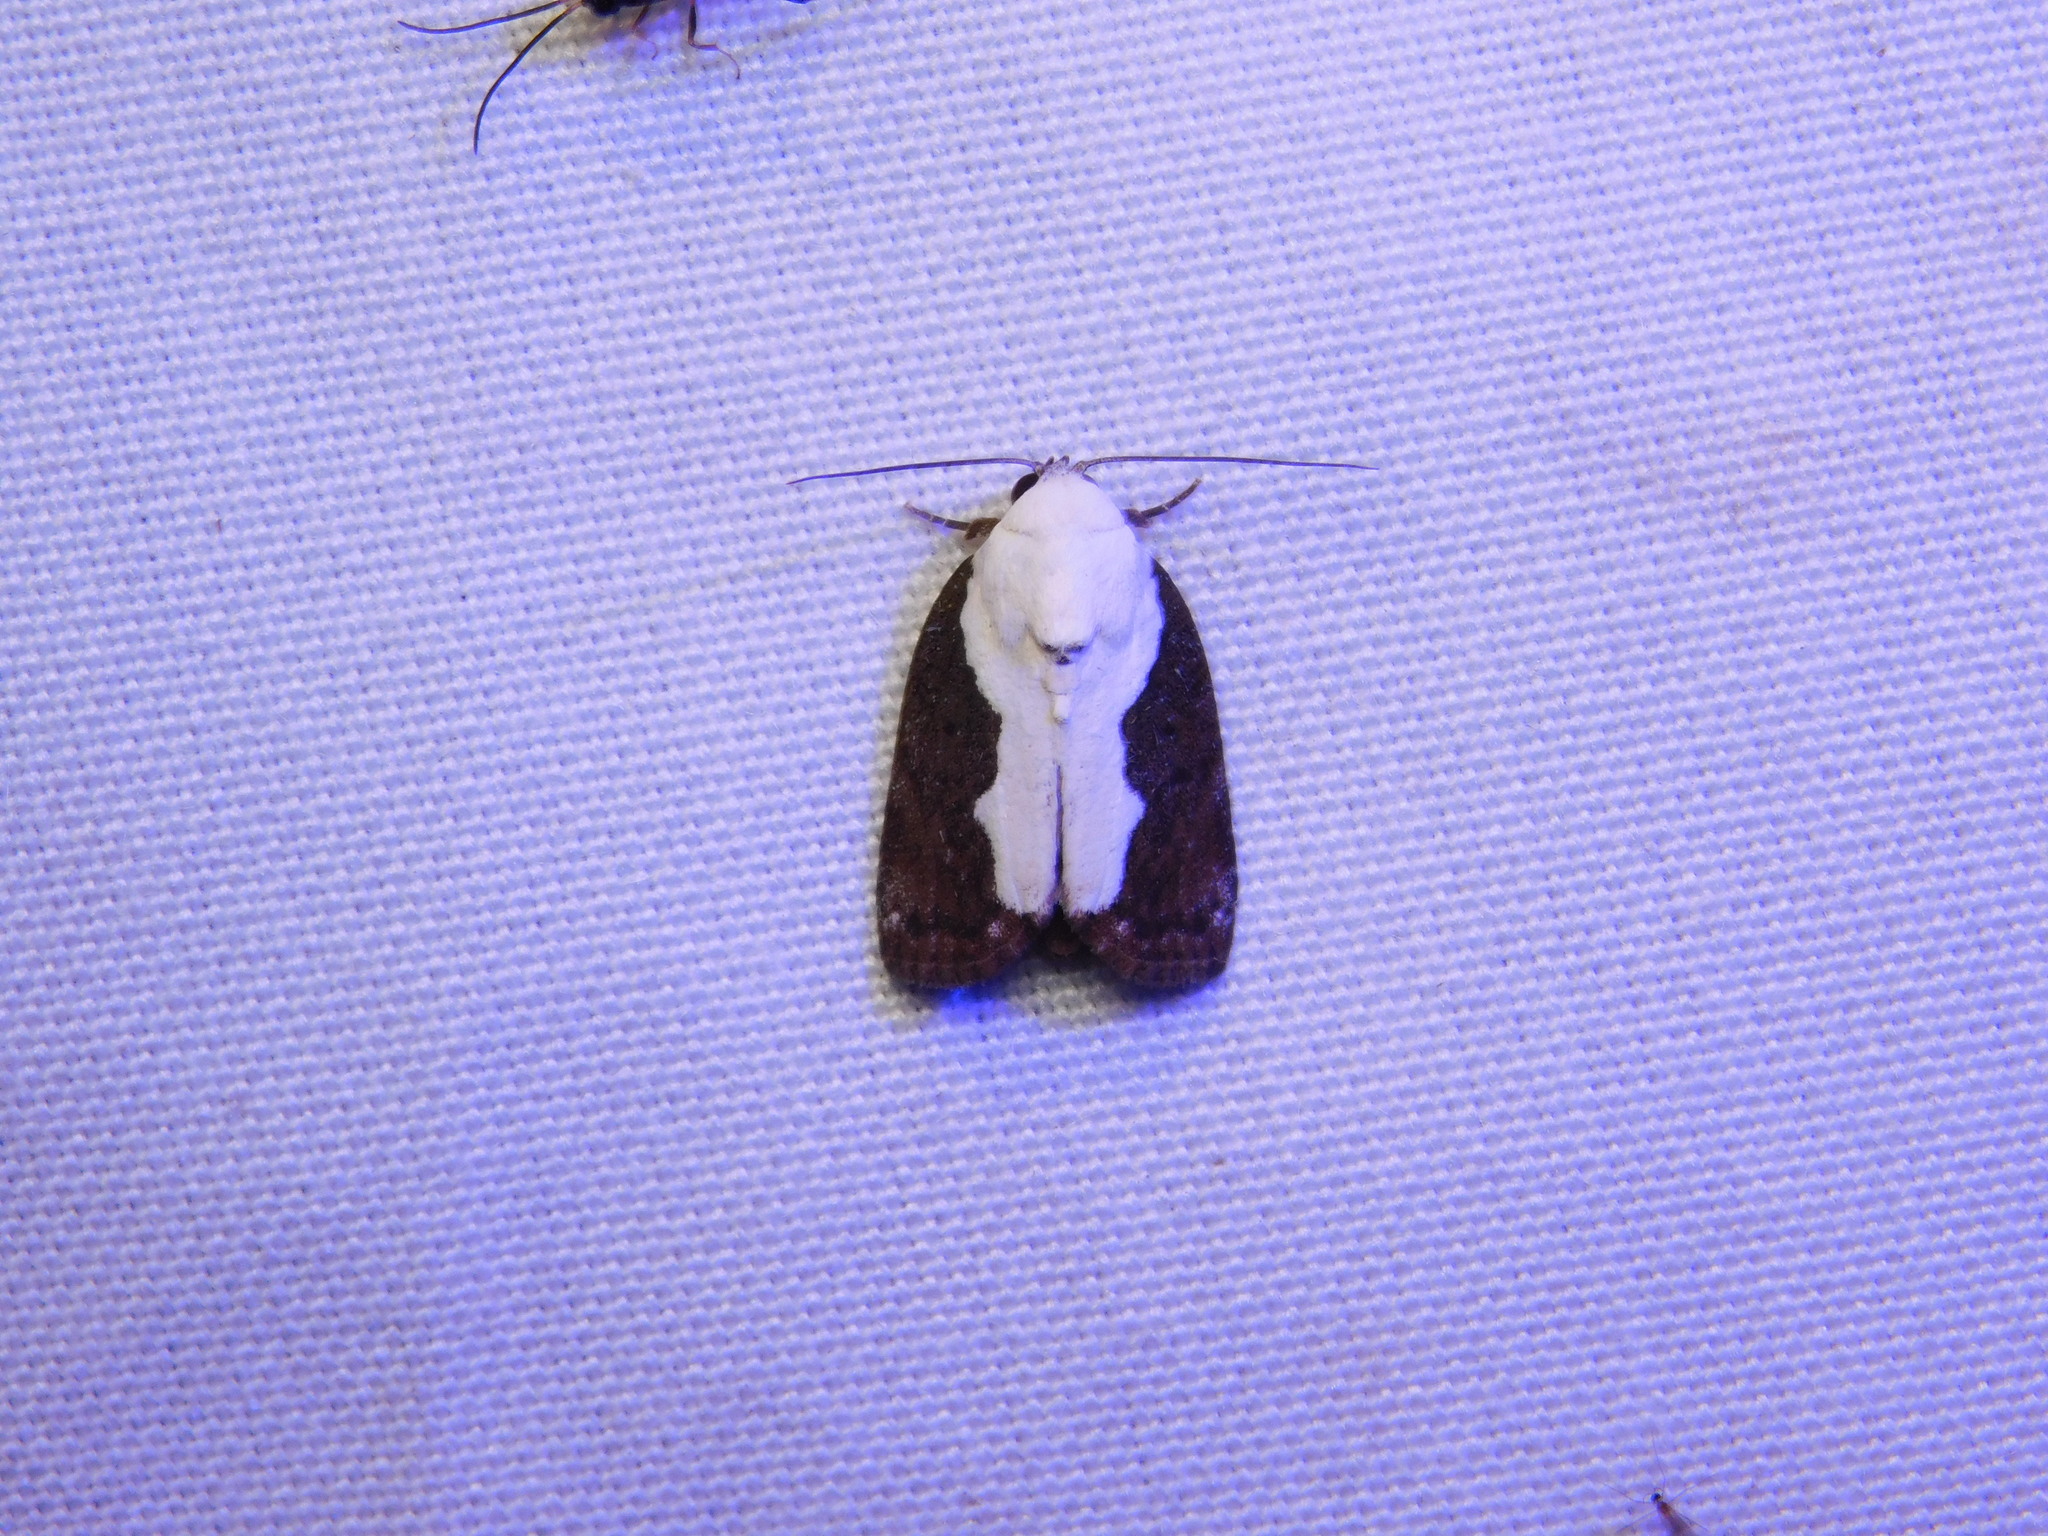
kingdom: Animalia
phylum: Arthropoda
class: Insecta
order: Lepidoptera
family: Nolidae
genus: Tathothripa
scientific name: Tathothripa continua
